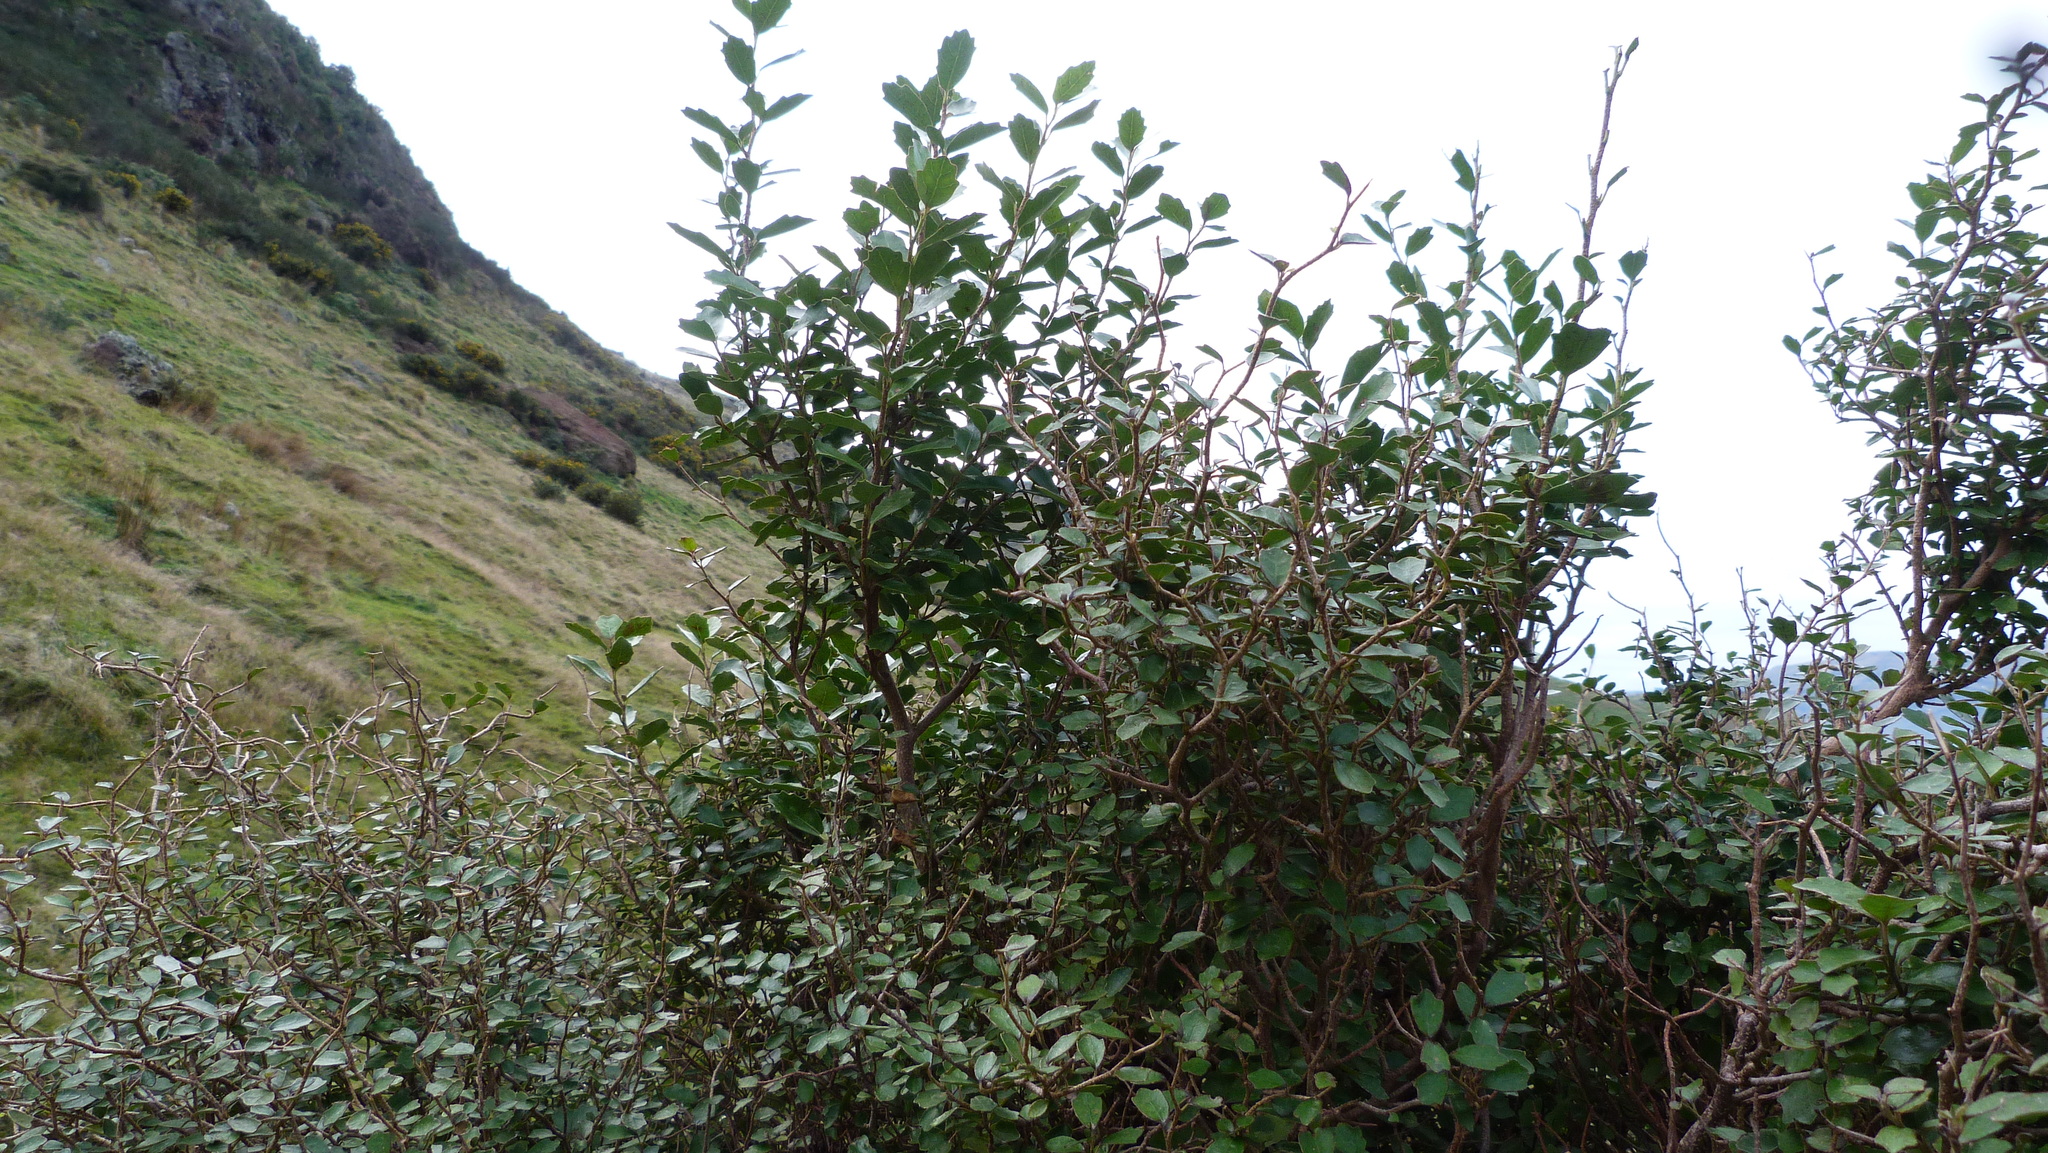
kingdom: Plantae
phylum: Tracheophyta
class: Magnoliopsida
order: Apiales
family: Pennantiaceae
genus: Pennantia
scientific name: Pennantia corymbosa
